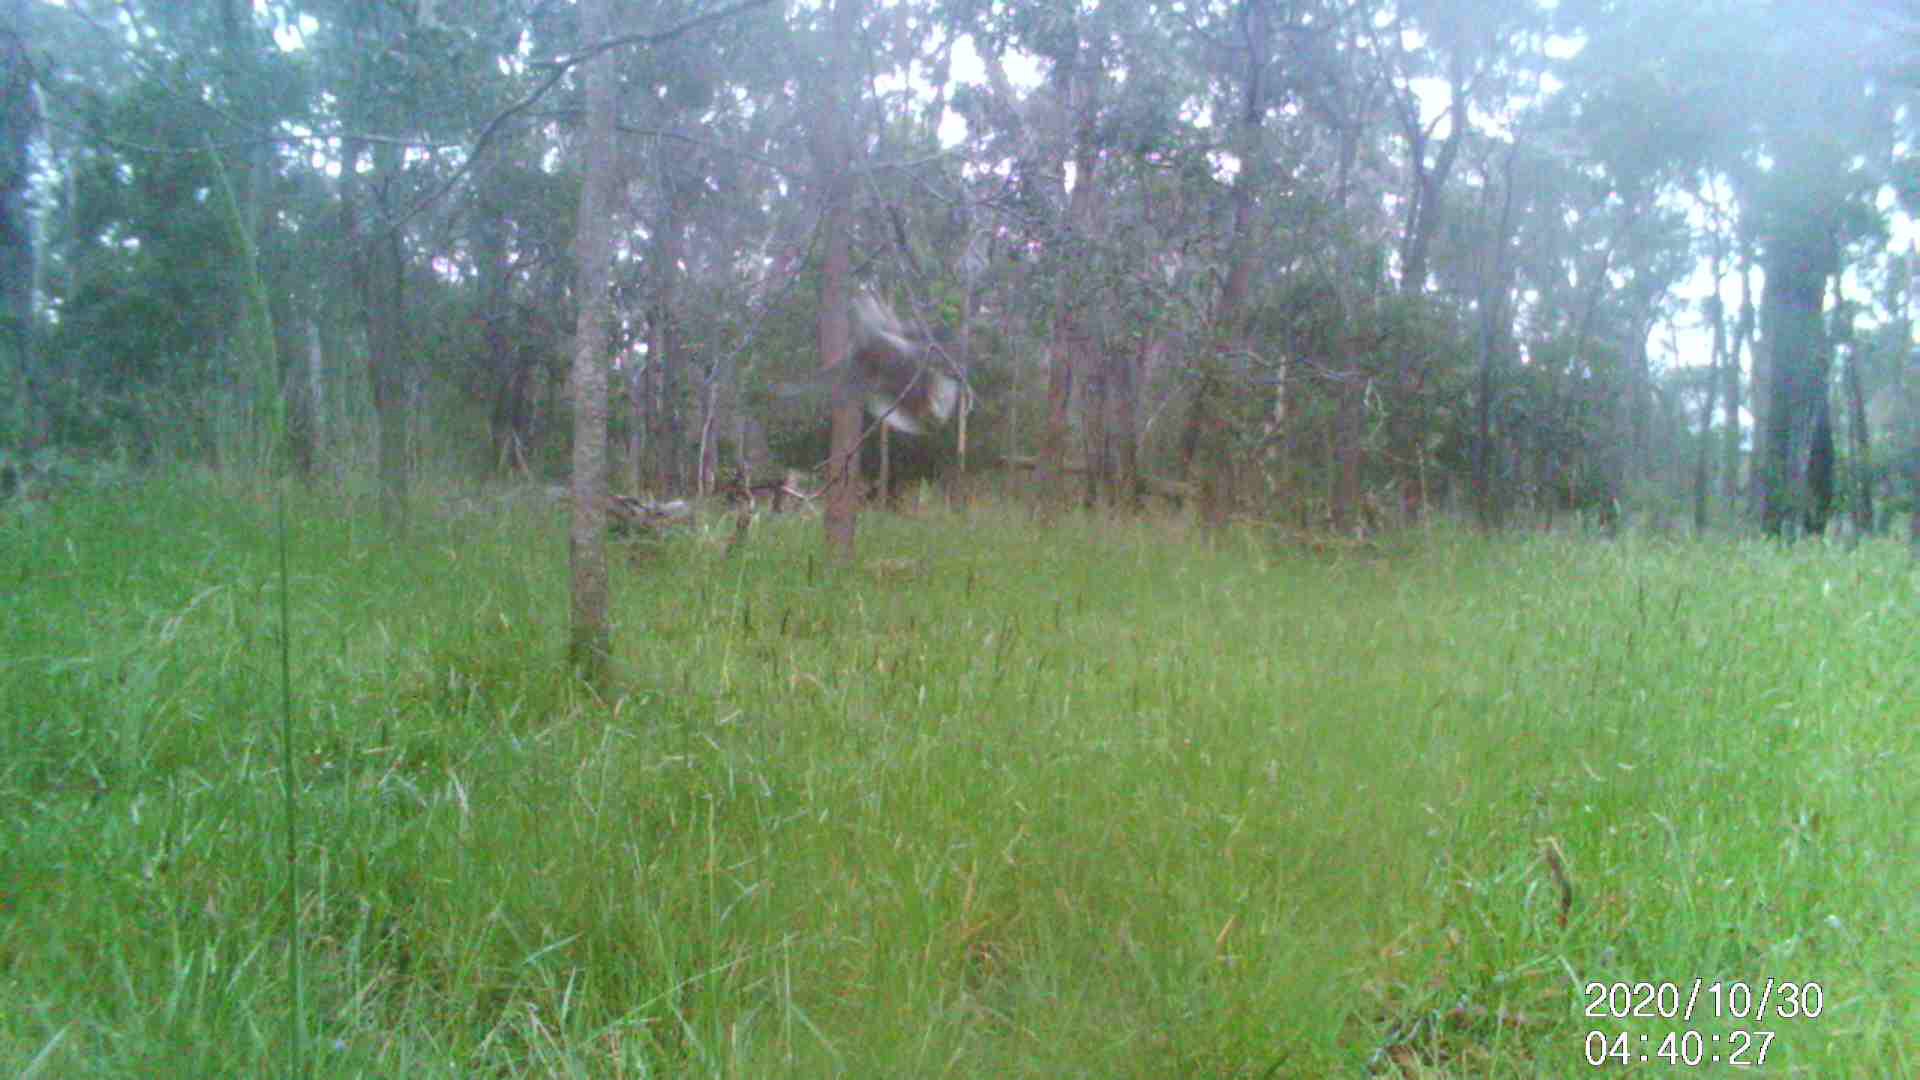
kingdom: Animalia
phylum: Chordata
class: Aves
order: Coraciiformes
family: Alcedinidae
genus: Dacelo
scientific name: Dacelo novaeguineae
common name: Laughing kookaburra
